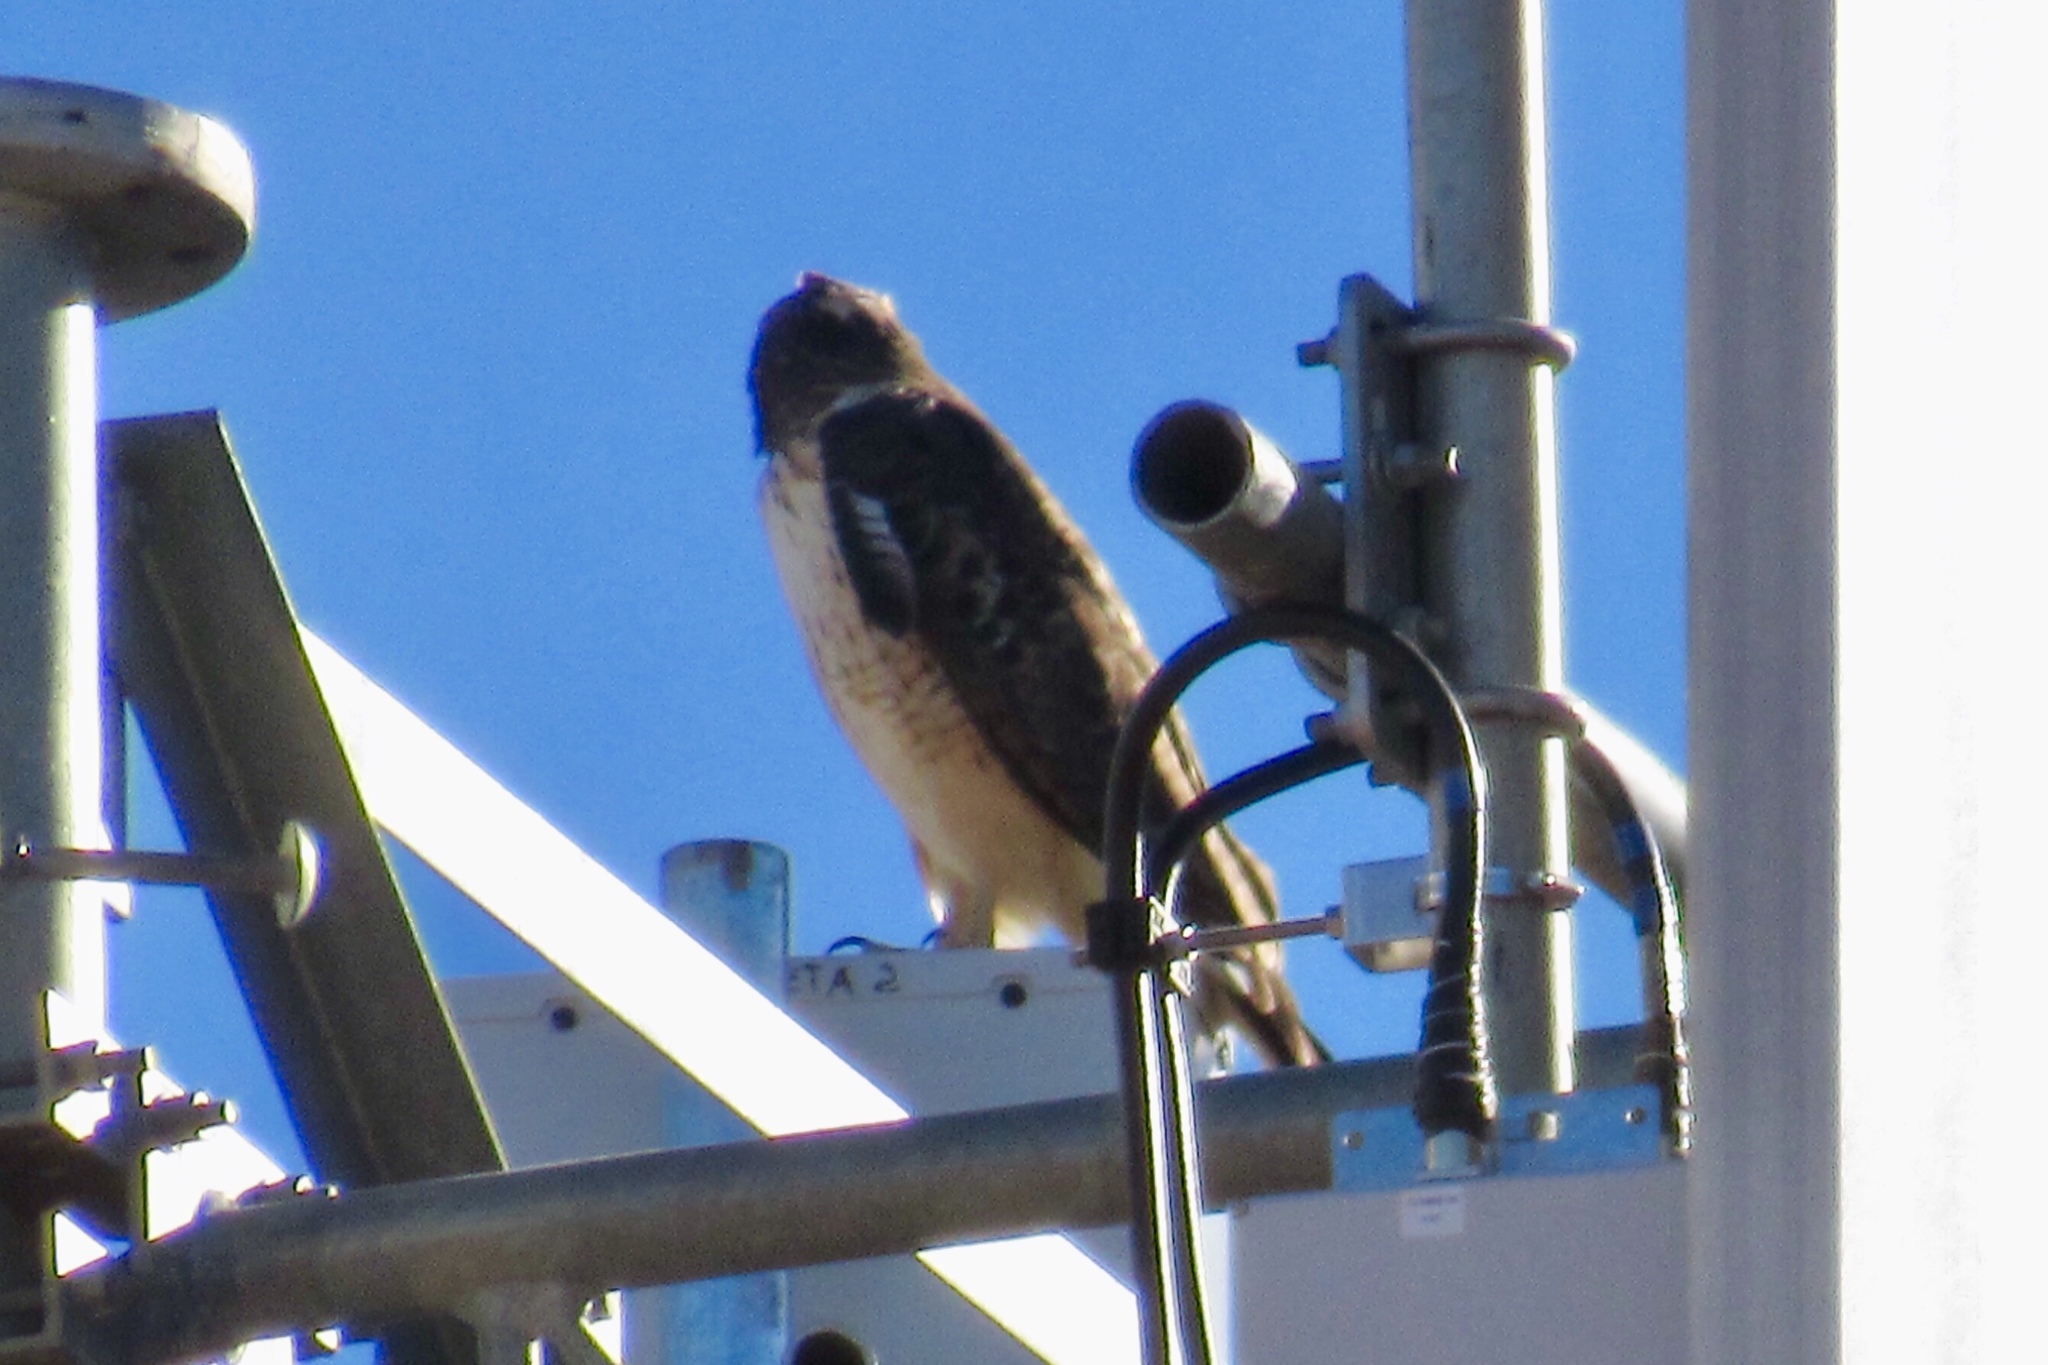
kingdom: Animalia
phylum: Chordata
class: Aves
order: Accipitriformes
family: Accipitridae
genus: Buteo
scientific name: Buteo jamaicensis
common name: Red-tailed hawk
